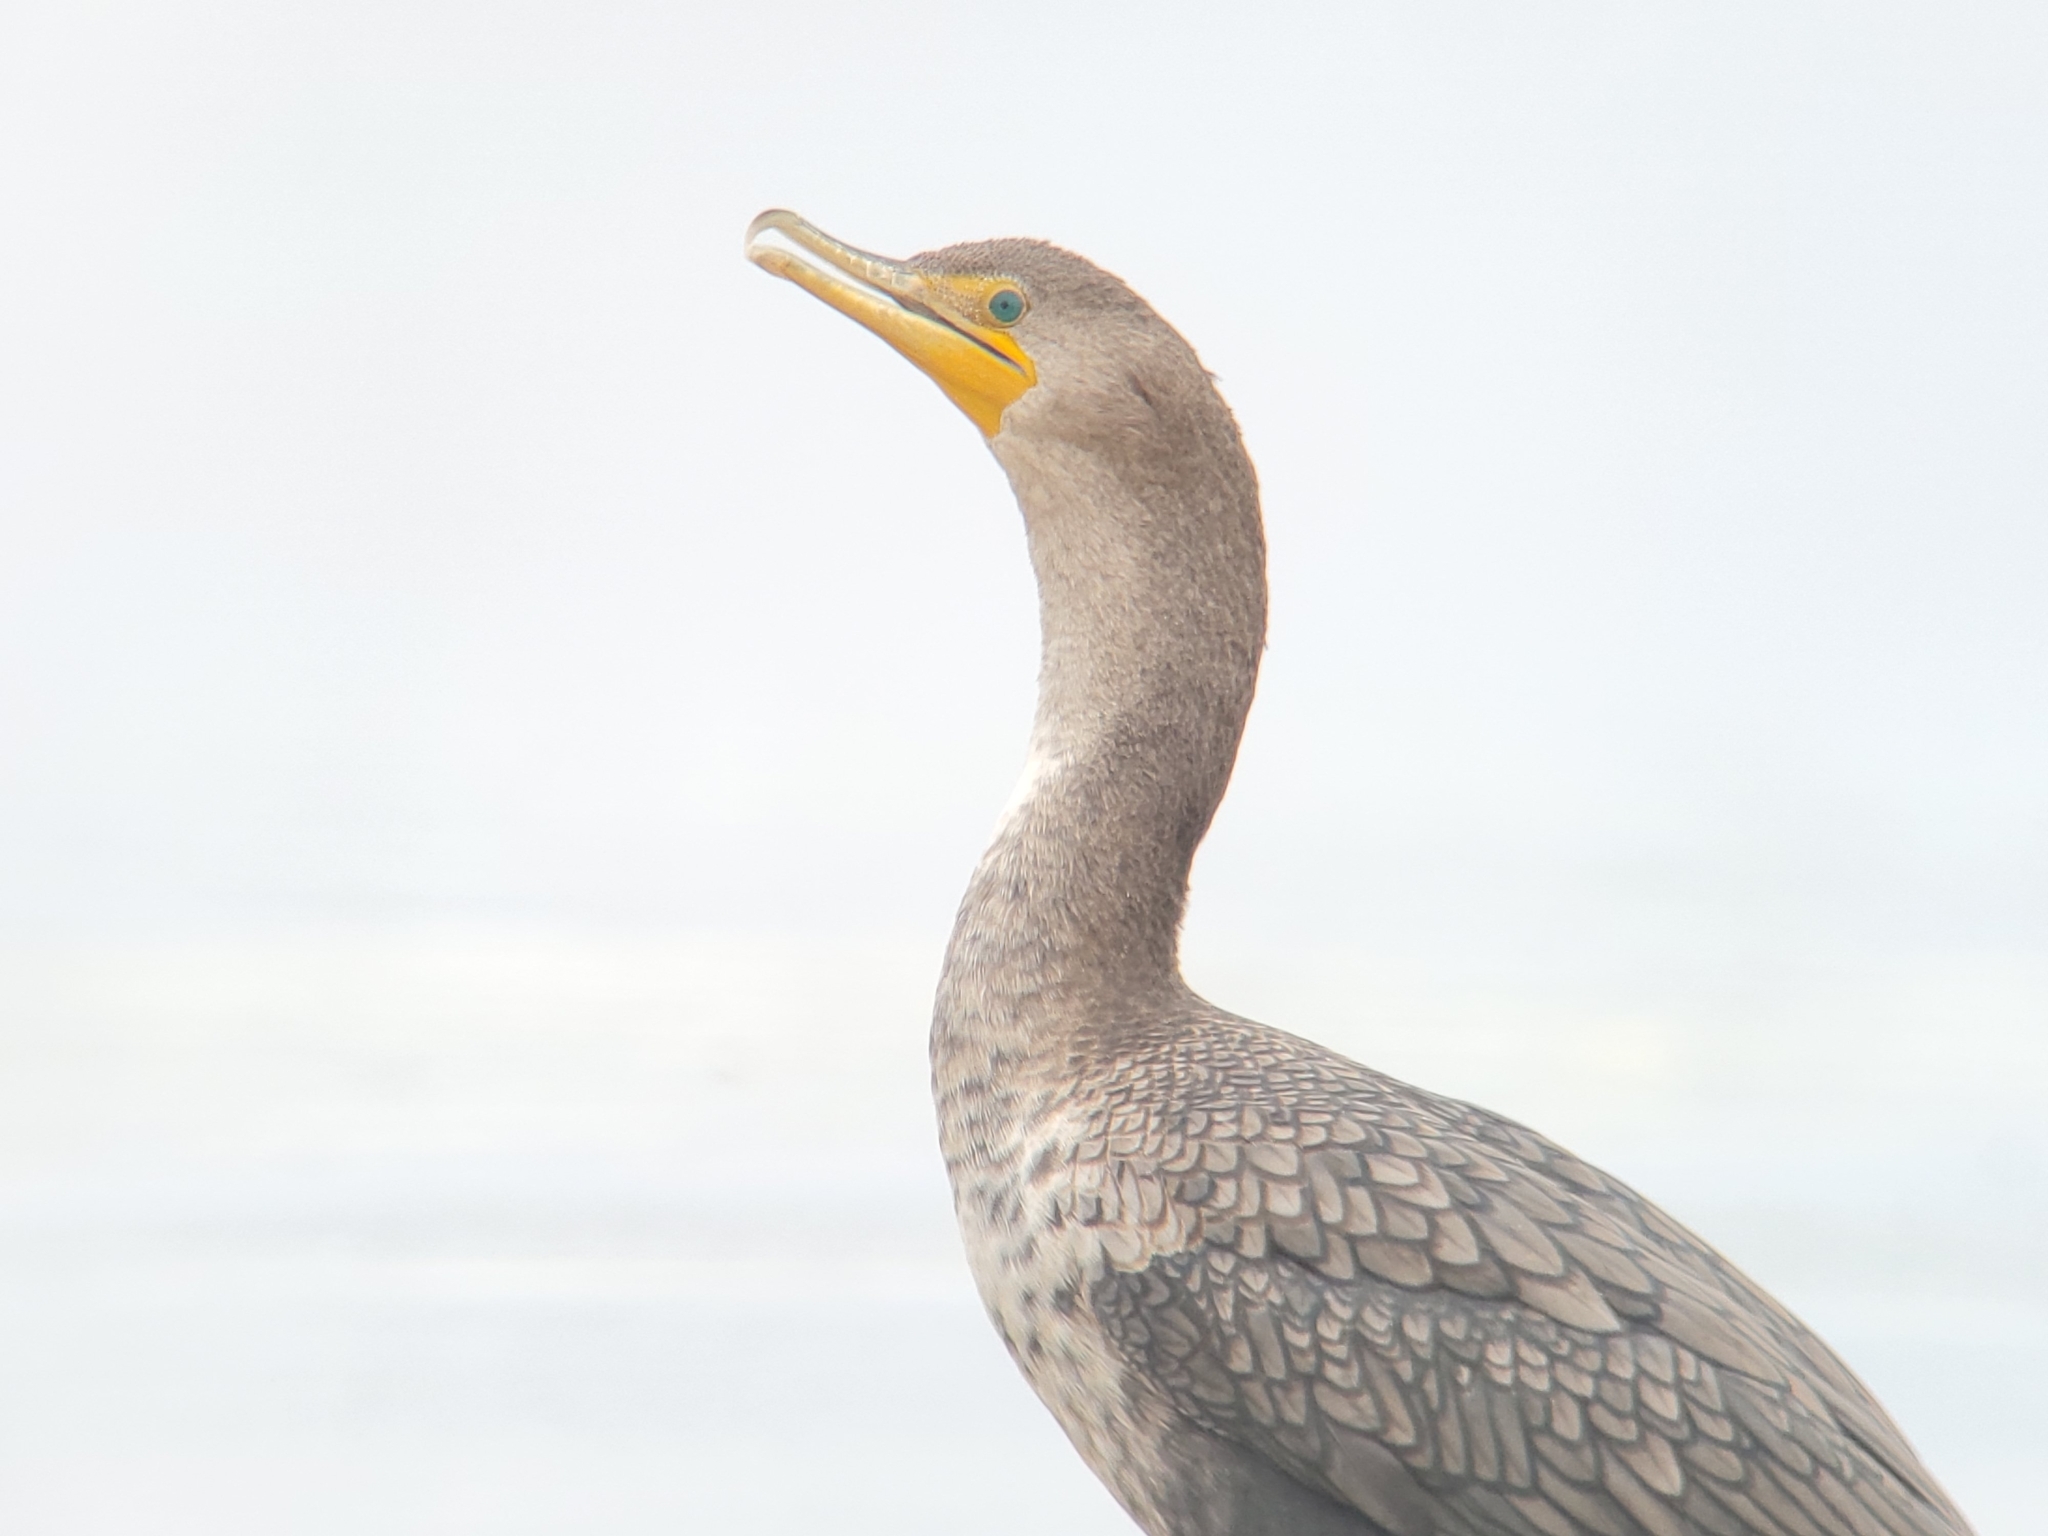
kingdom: Animalia
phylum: Chordata
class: Aves
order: Suliformes
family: Phalacrocoracidae
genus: Phalacrocorax
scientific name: Phalacrocorax auritus
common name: Double-crested cormorant
